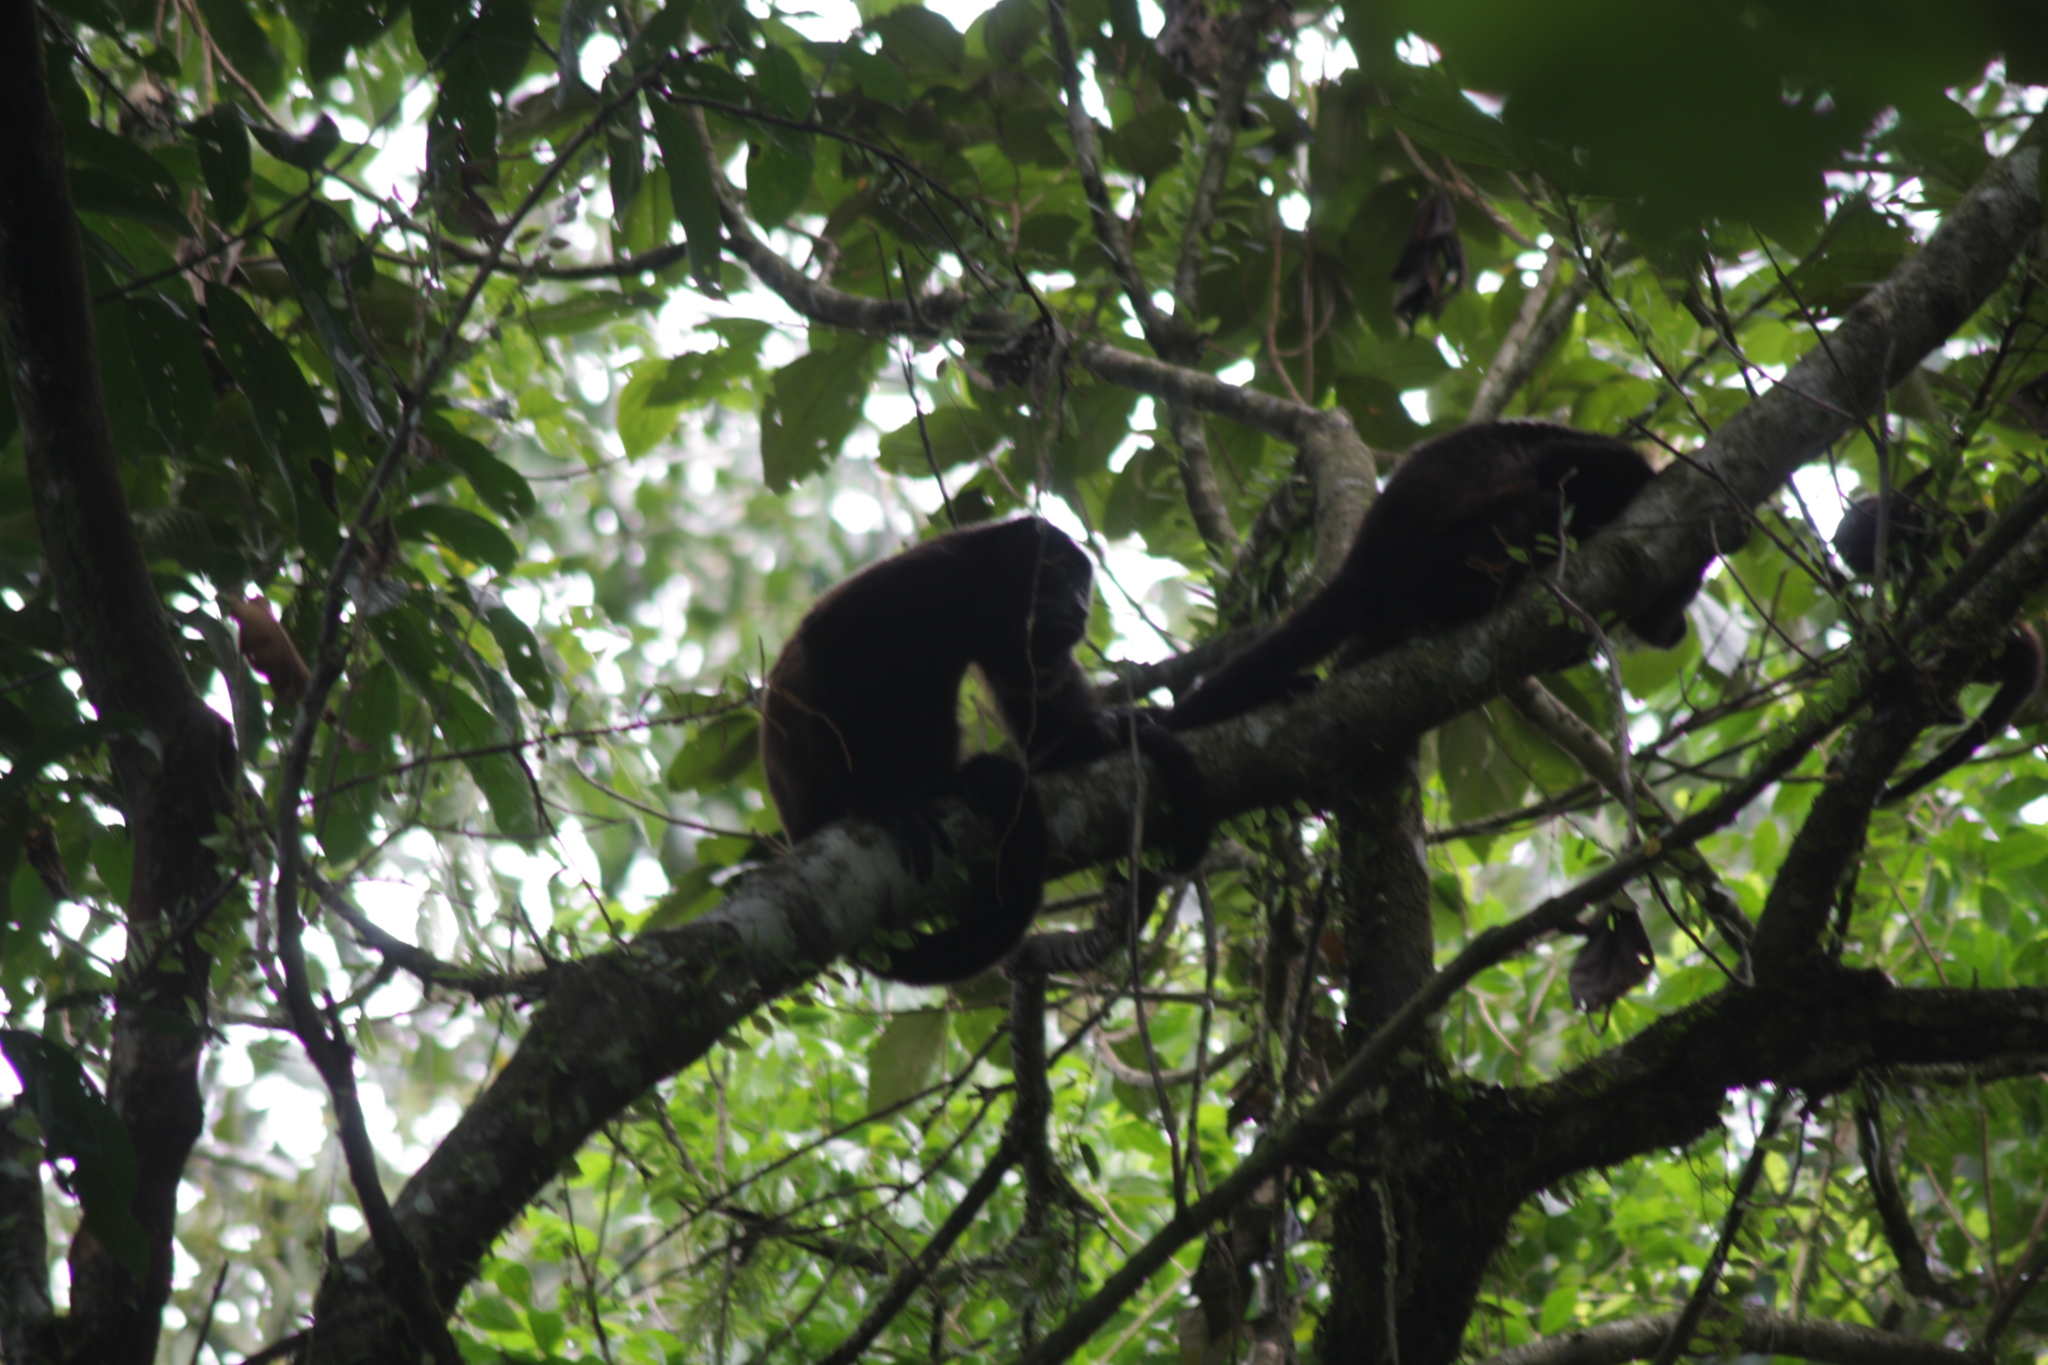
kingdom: Animalia
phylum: Chordata
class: Mammalia
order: Primates
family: Atelidae
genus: Alouatta
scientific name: Alouatta palliata
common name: Mantled howler
